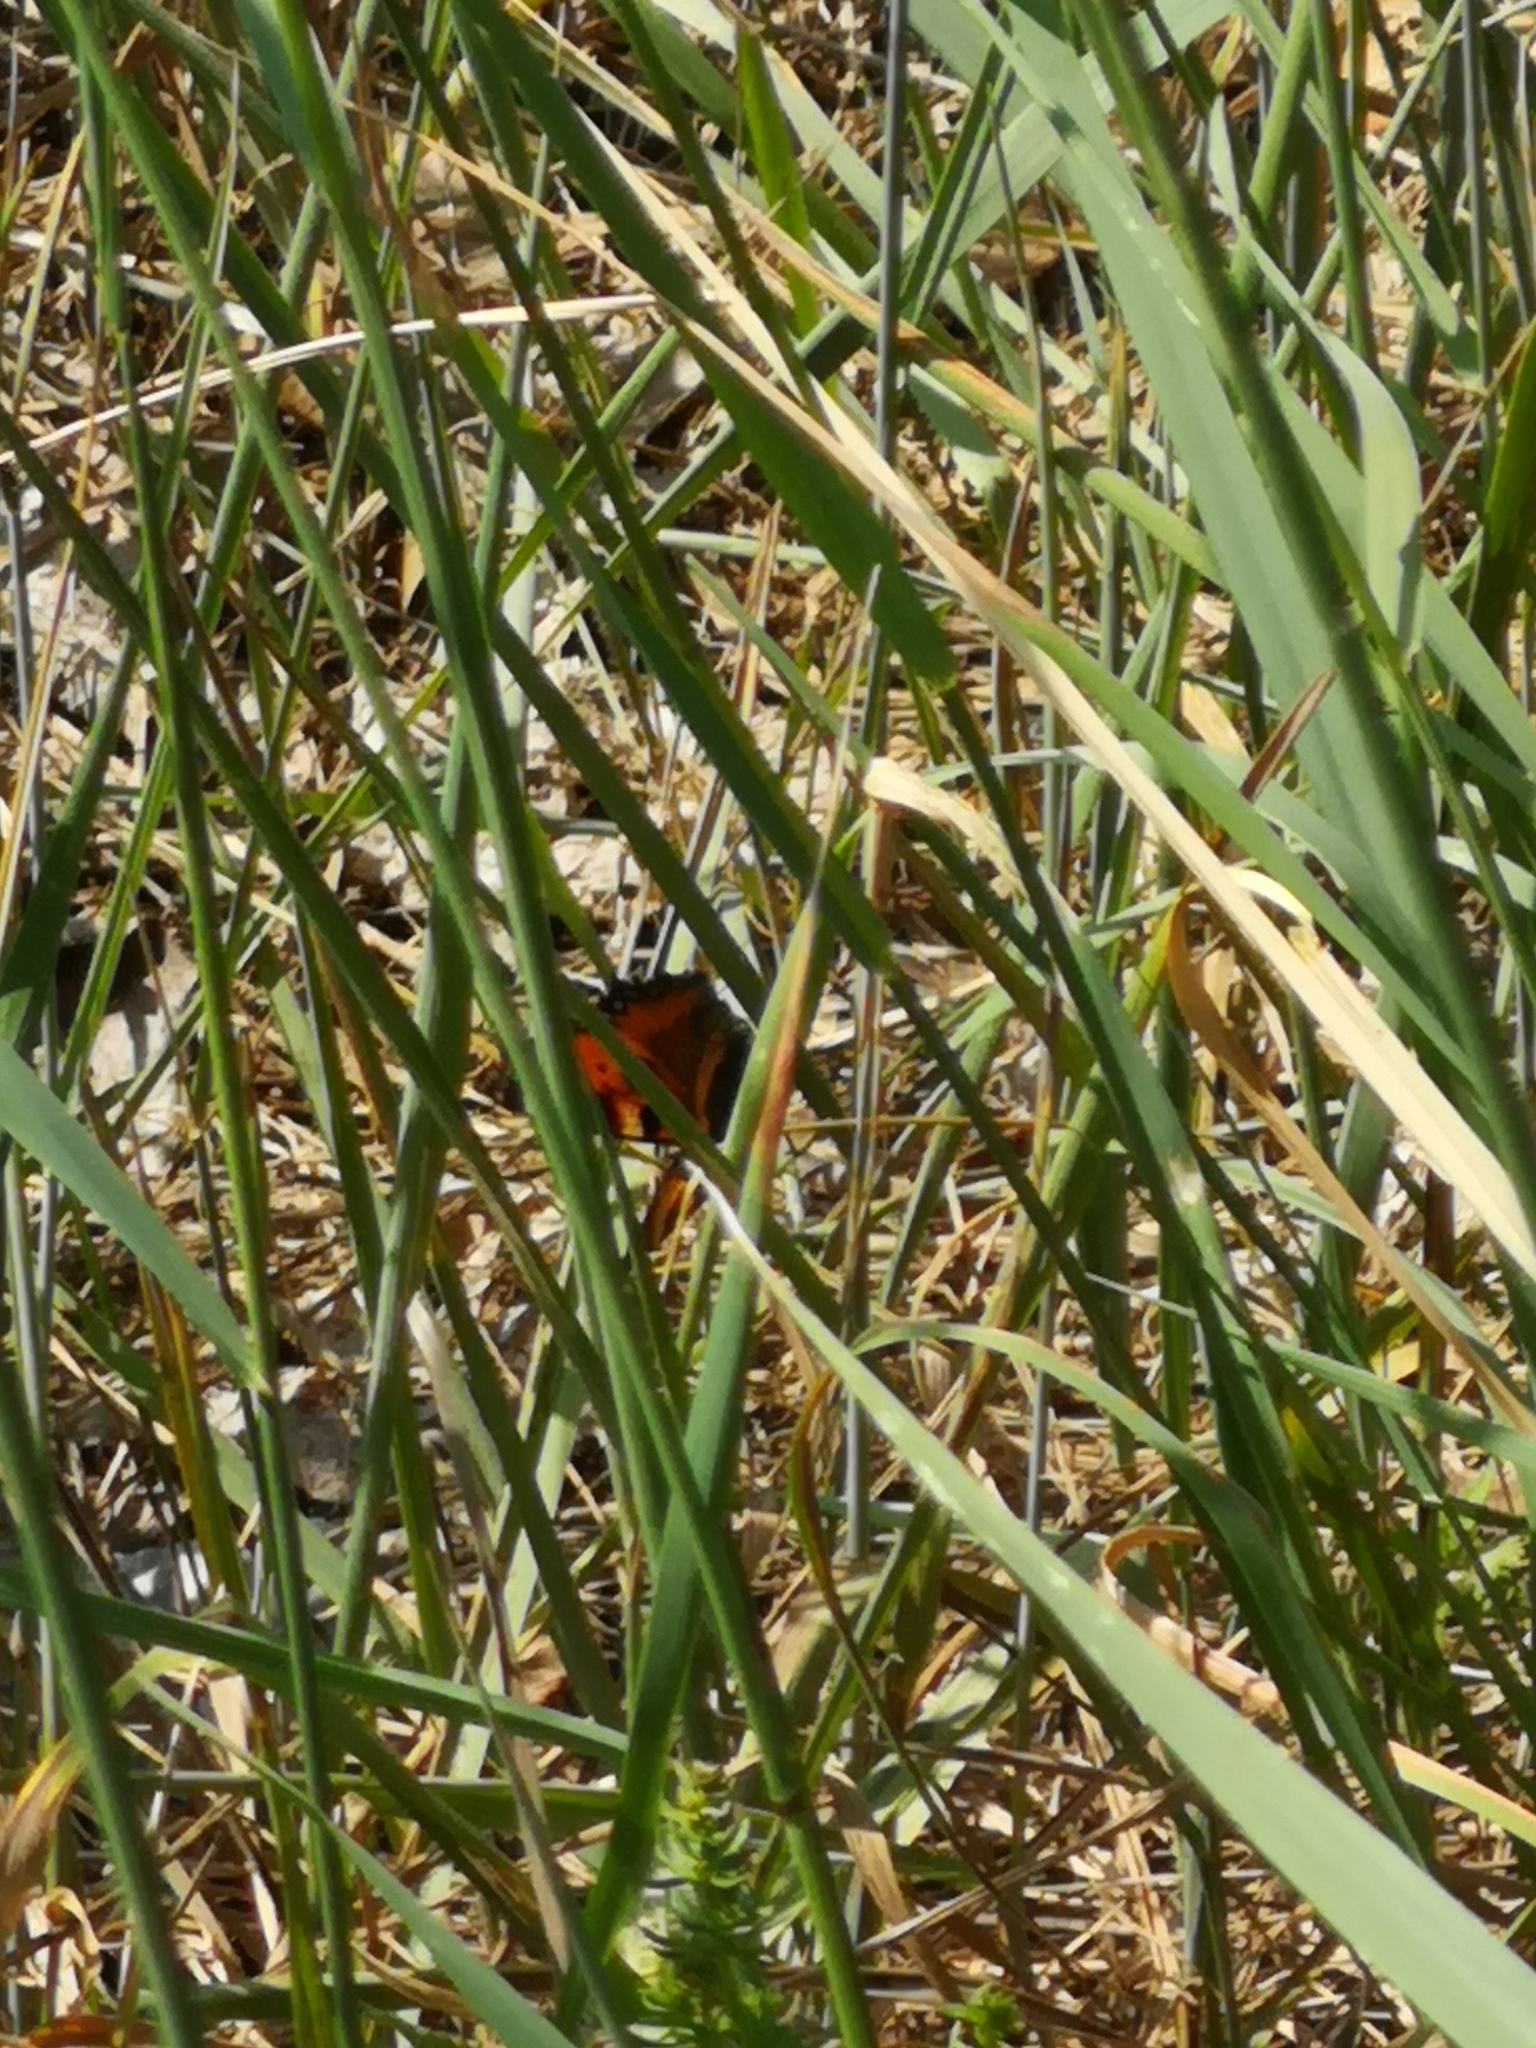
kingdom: Animalia
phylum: Arthropoda
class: Insecta
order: Lepidoptera
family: Nymphalidae
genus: Aglais
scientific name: Aglais urticae
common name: Small tortoiseshell
